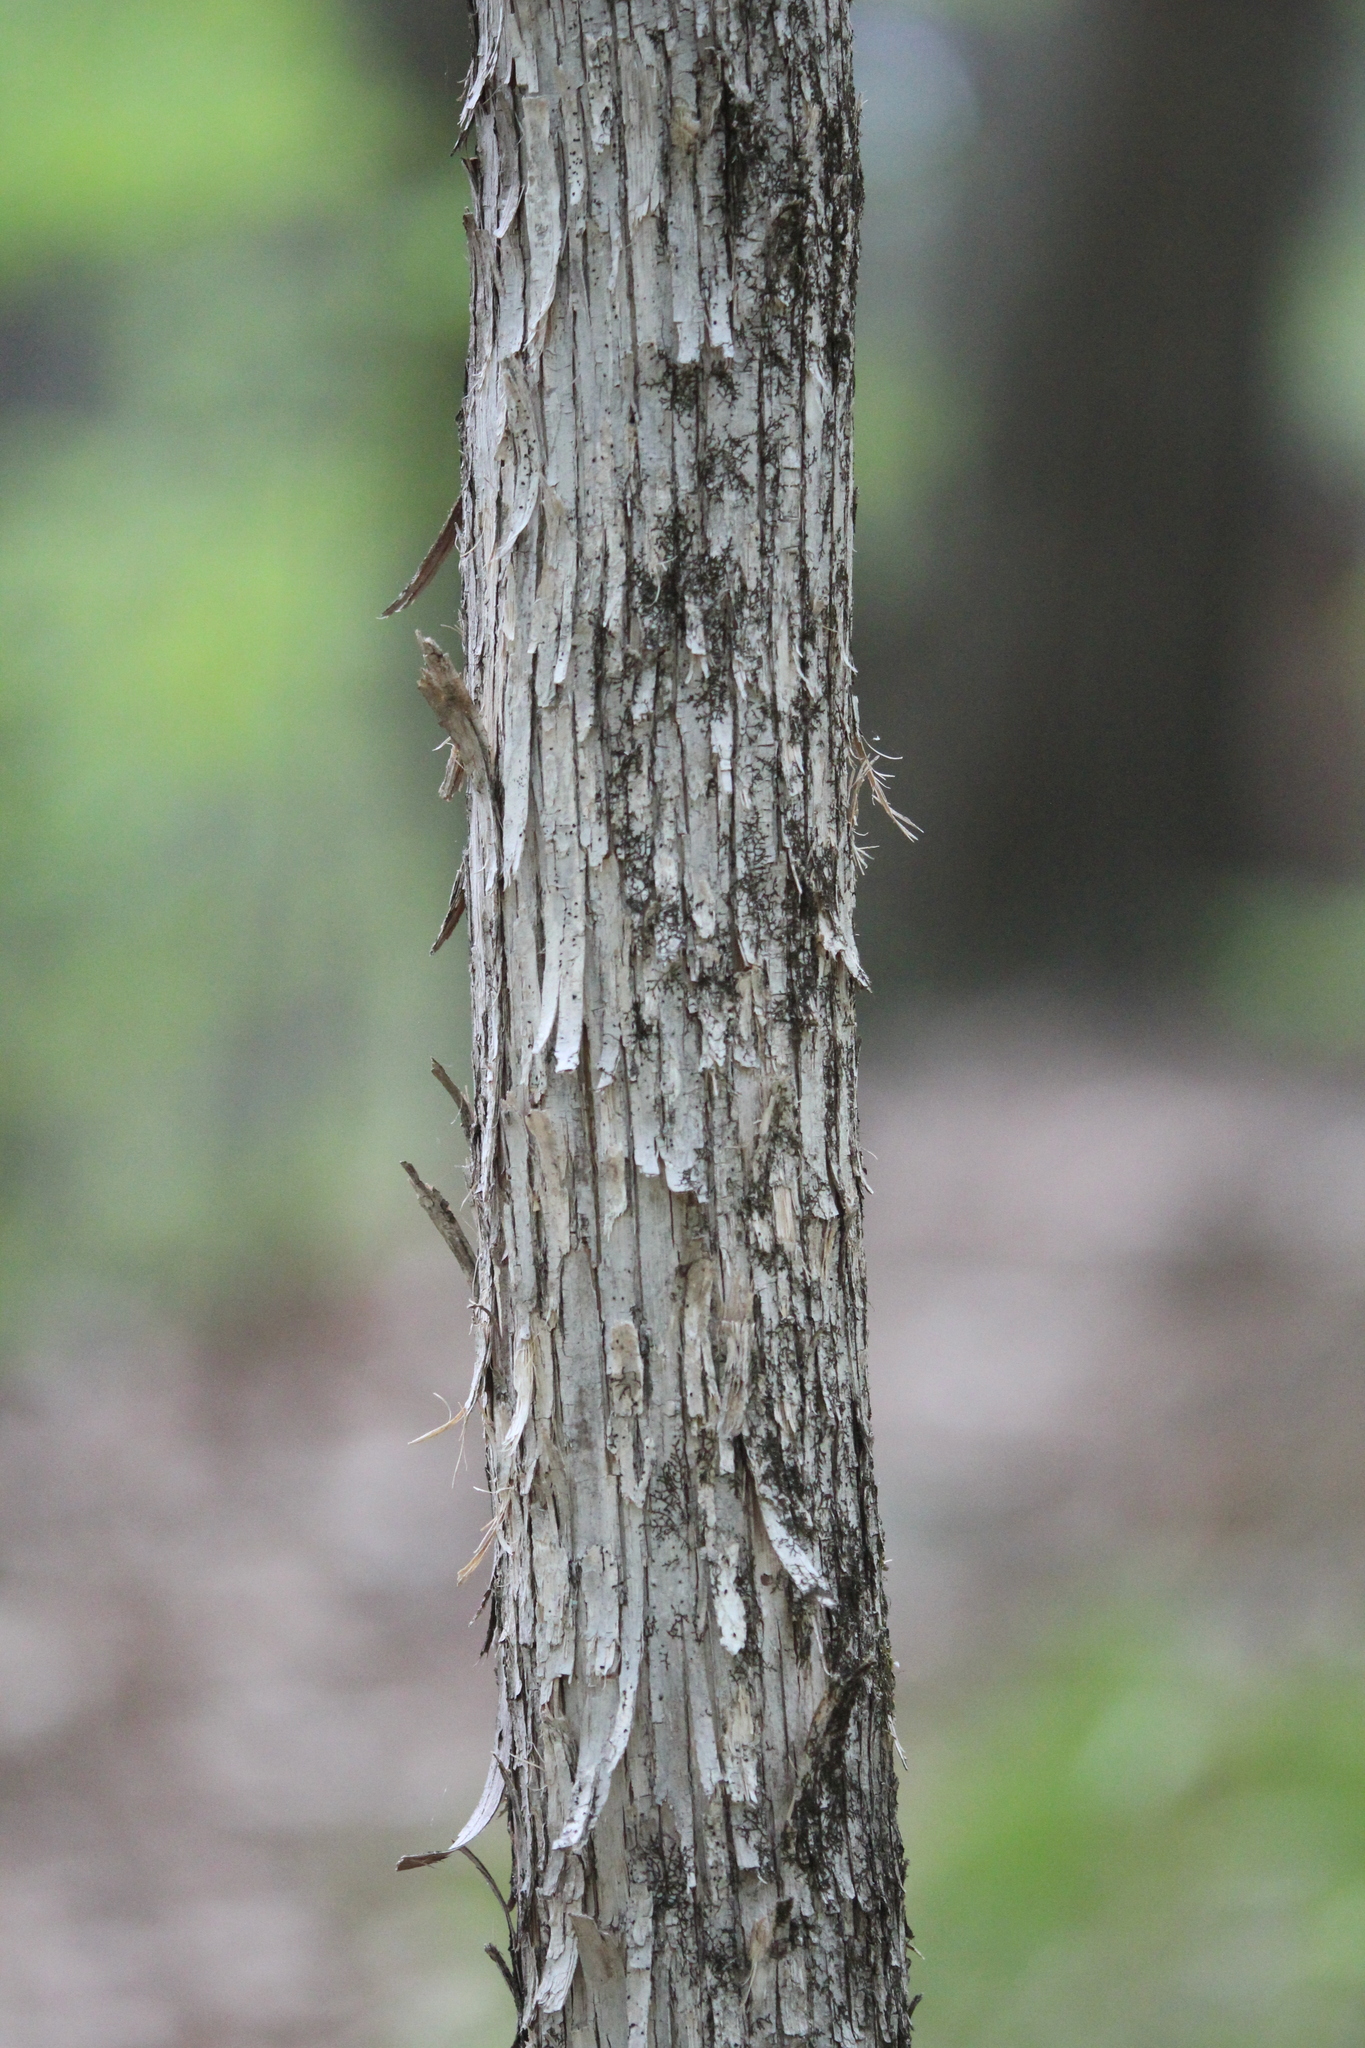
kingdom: Plantae
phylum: Tracheophyta
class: Magnoliopsida
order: Fagales
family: Betulaceae
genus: Ostrya
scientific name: Ostrya virginiana
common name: Ironwood
